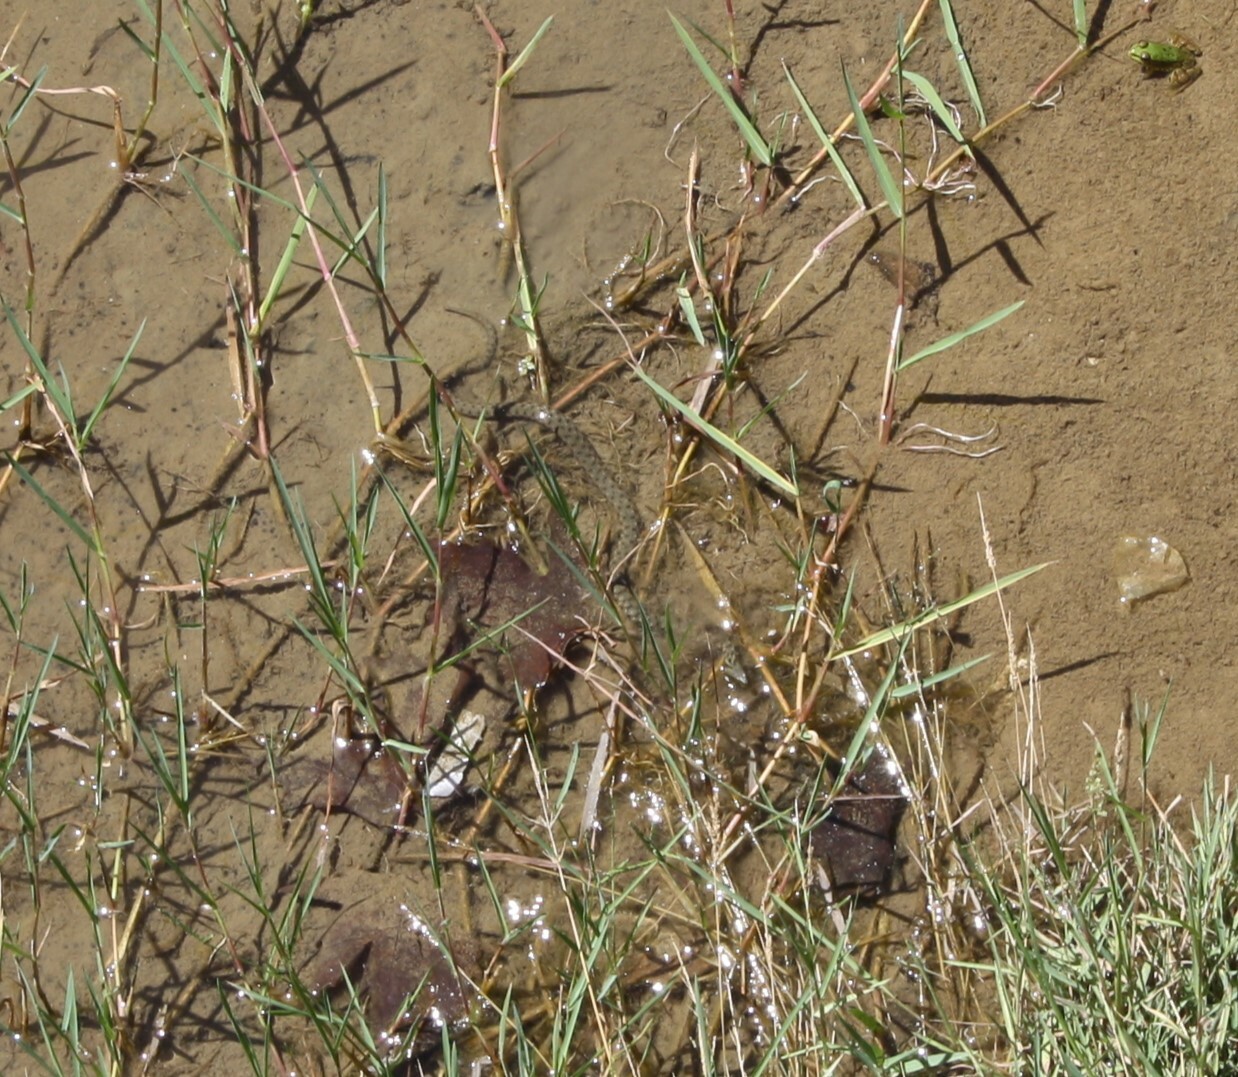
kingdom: Animalia
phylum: Chordata
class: Squamata
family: Colubridae
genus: Natrix
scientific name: Natrix tessellata
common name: Dice snake
